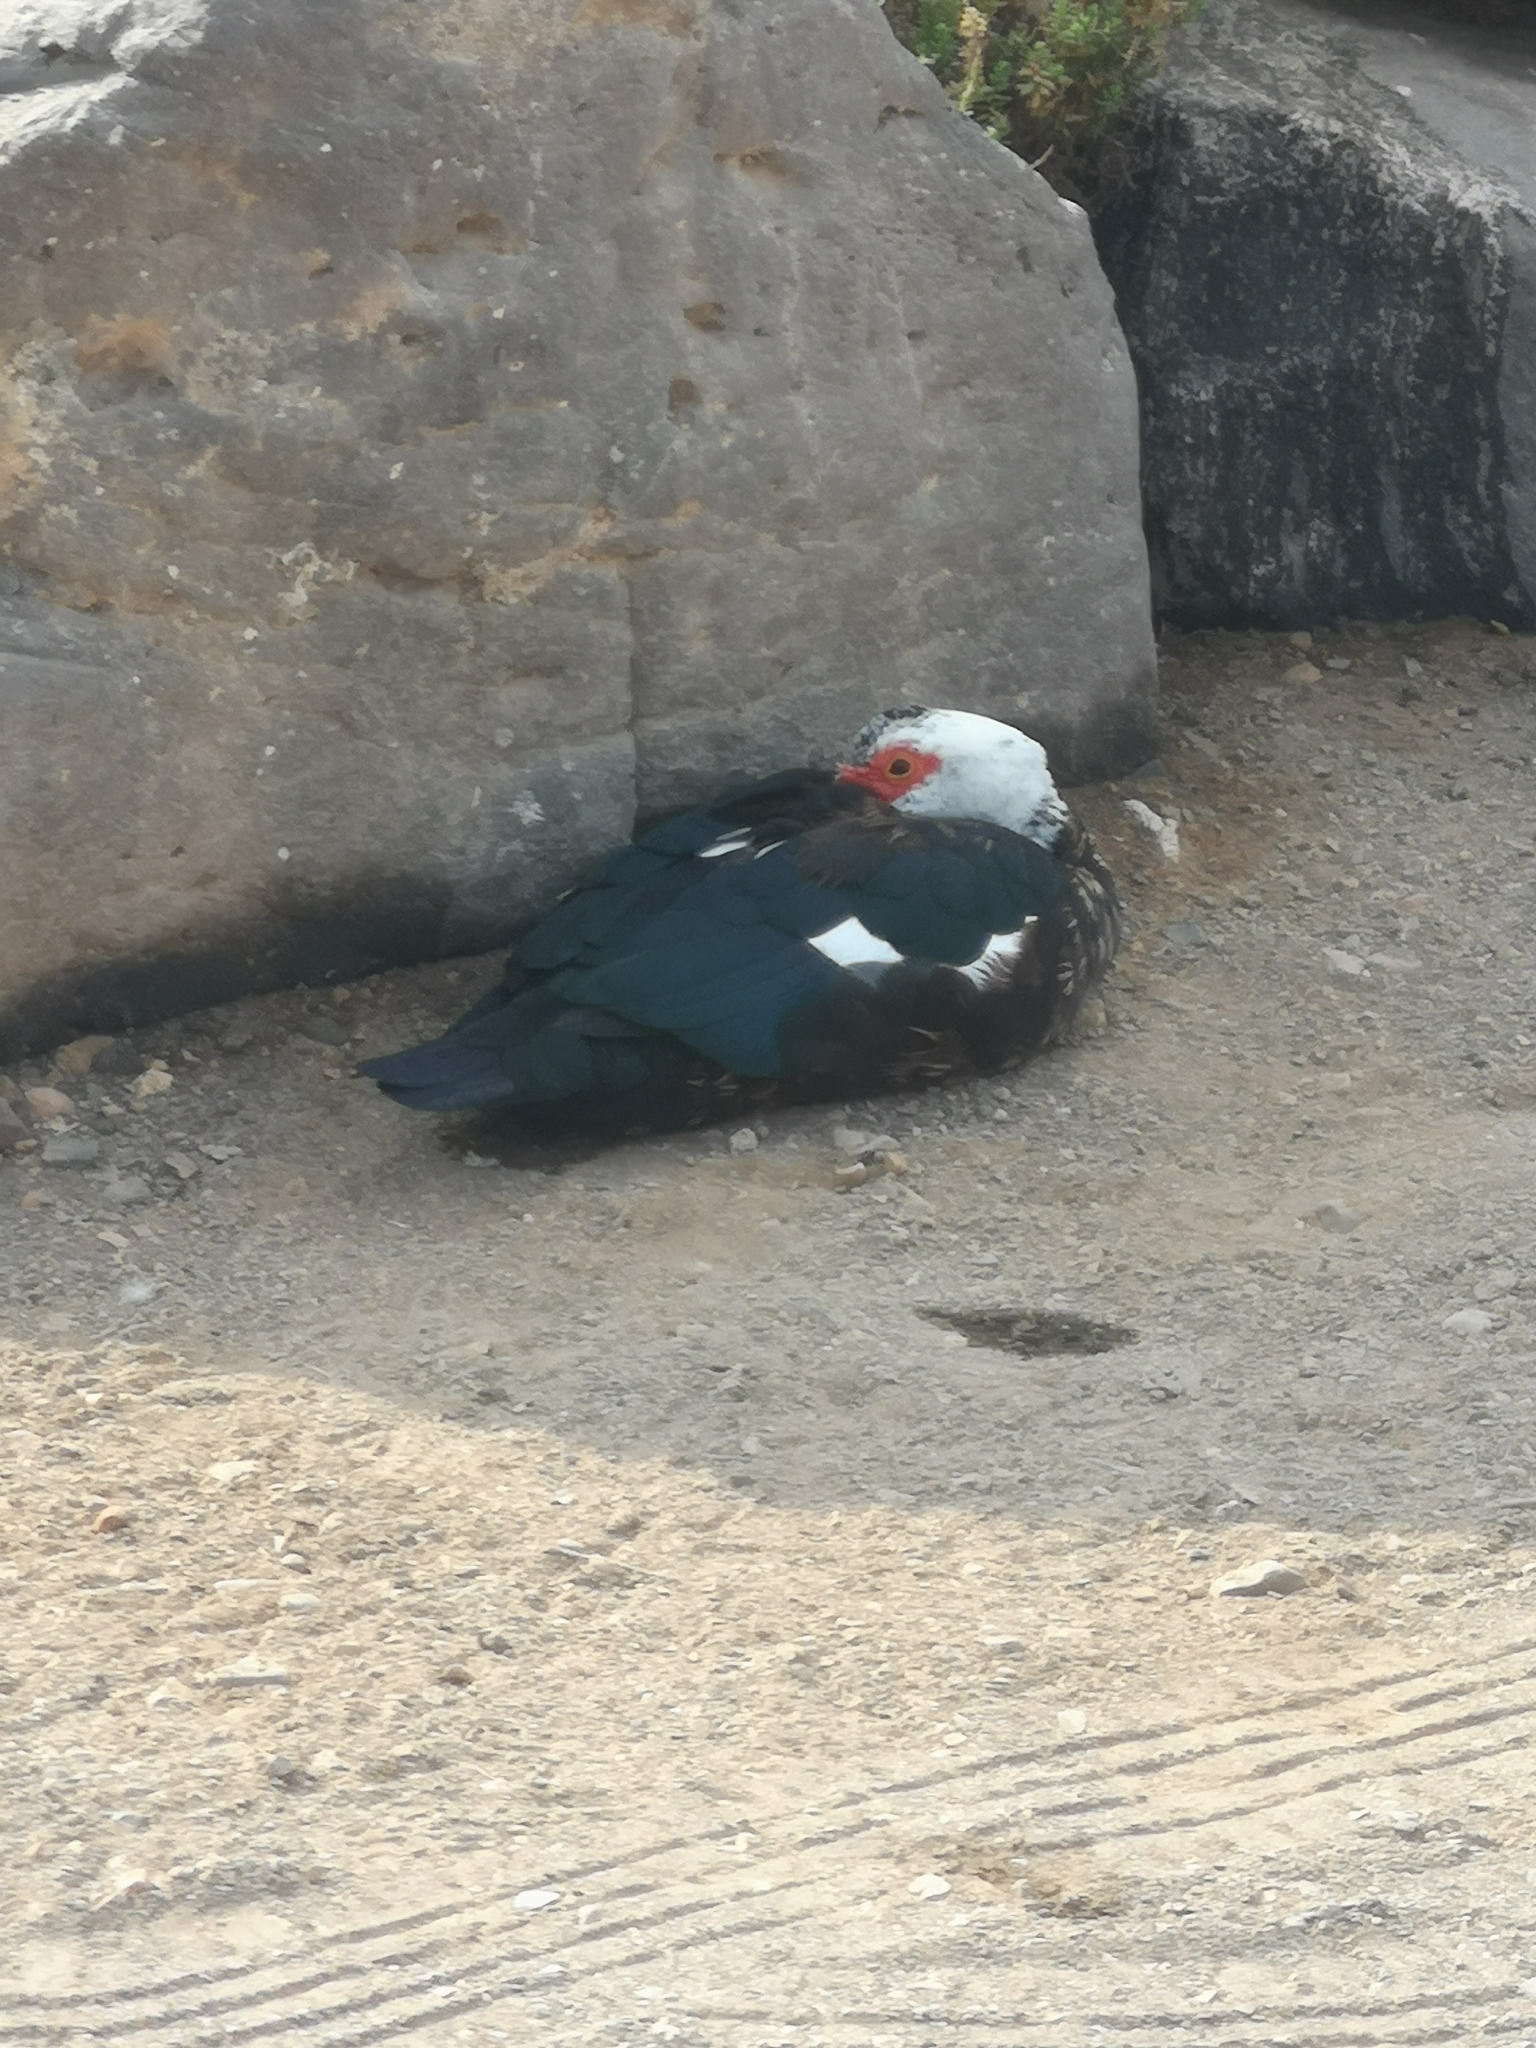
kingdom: Animalia
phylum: Chordata
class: Aves
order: Anseriformes
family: Anatidae
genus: Cairina
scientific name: Cairina moschata
